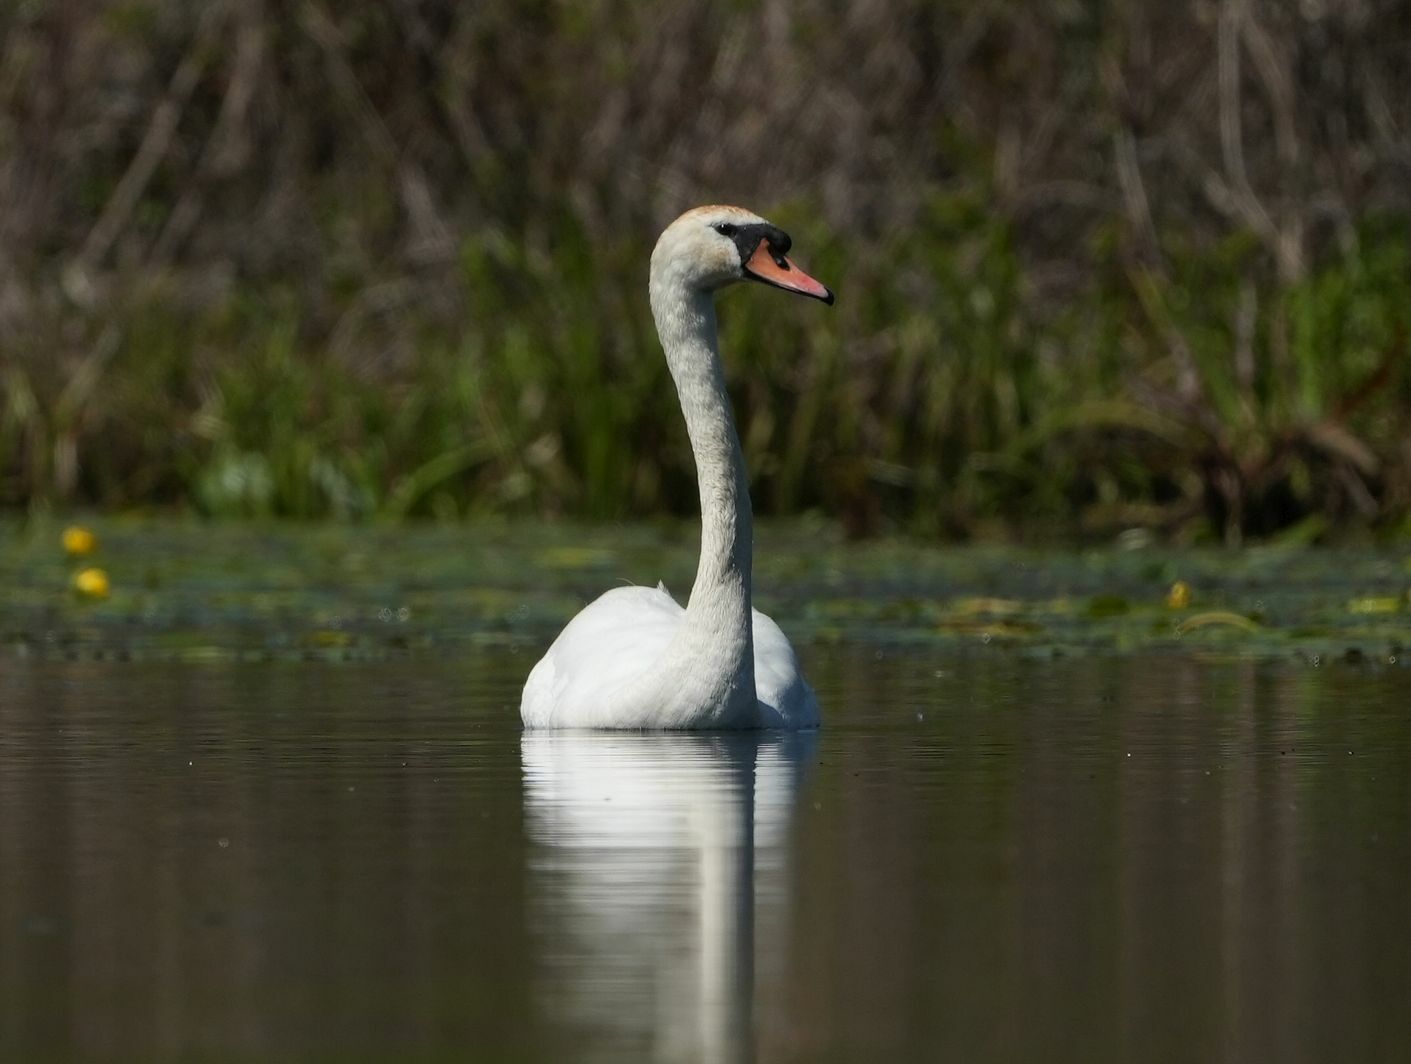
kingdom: Animalia
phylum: Chordata
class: Aves
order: Anseriformes
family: Anatidae
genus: Cygnus
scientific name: Cygnus olor
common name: Mute swan
